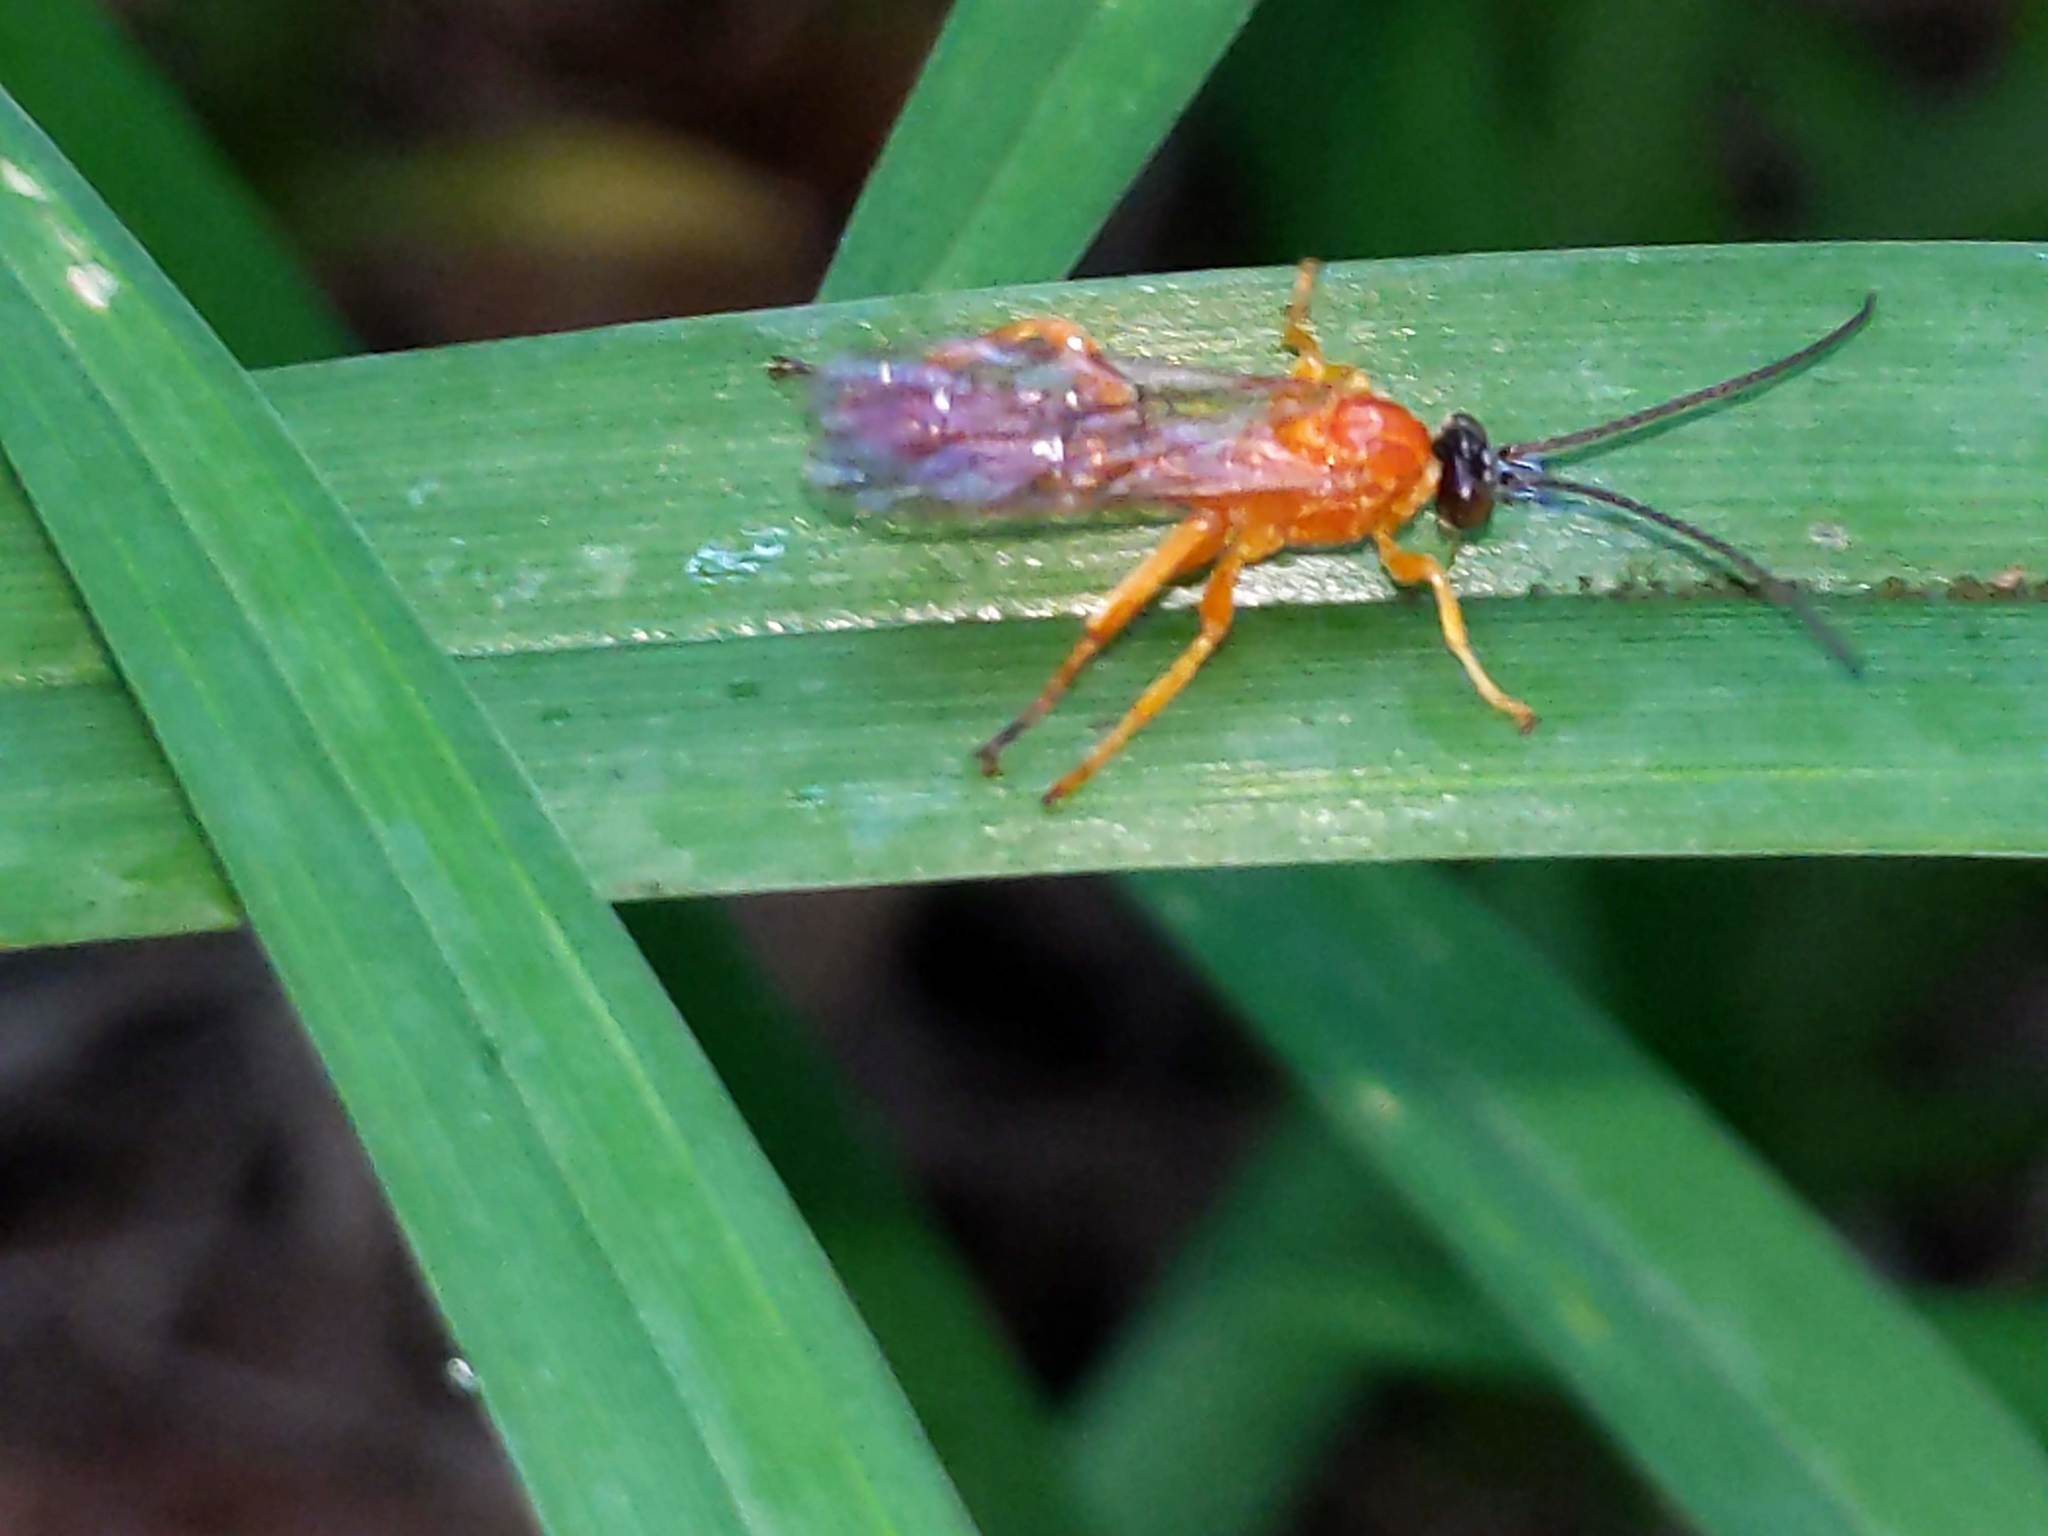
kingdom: Animalia
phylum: Arthropoda
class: Insecta
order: Hymenoptera
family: Ichneumonidae
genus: Theronia
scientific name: Theronia hilaris
